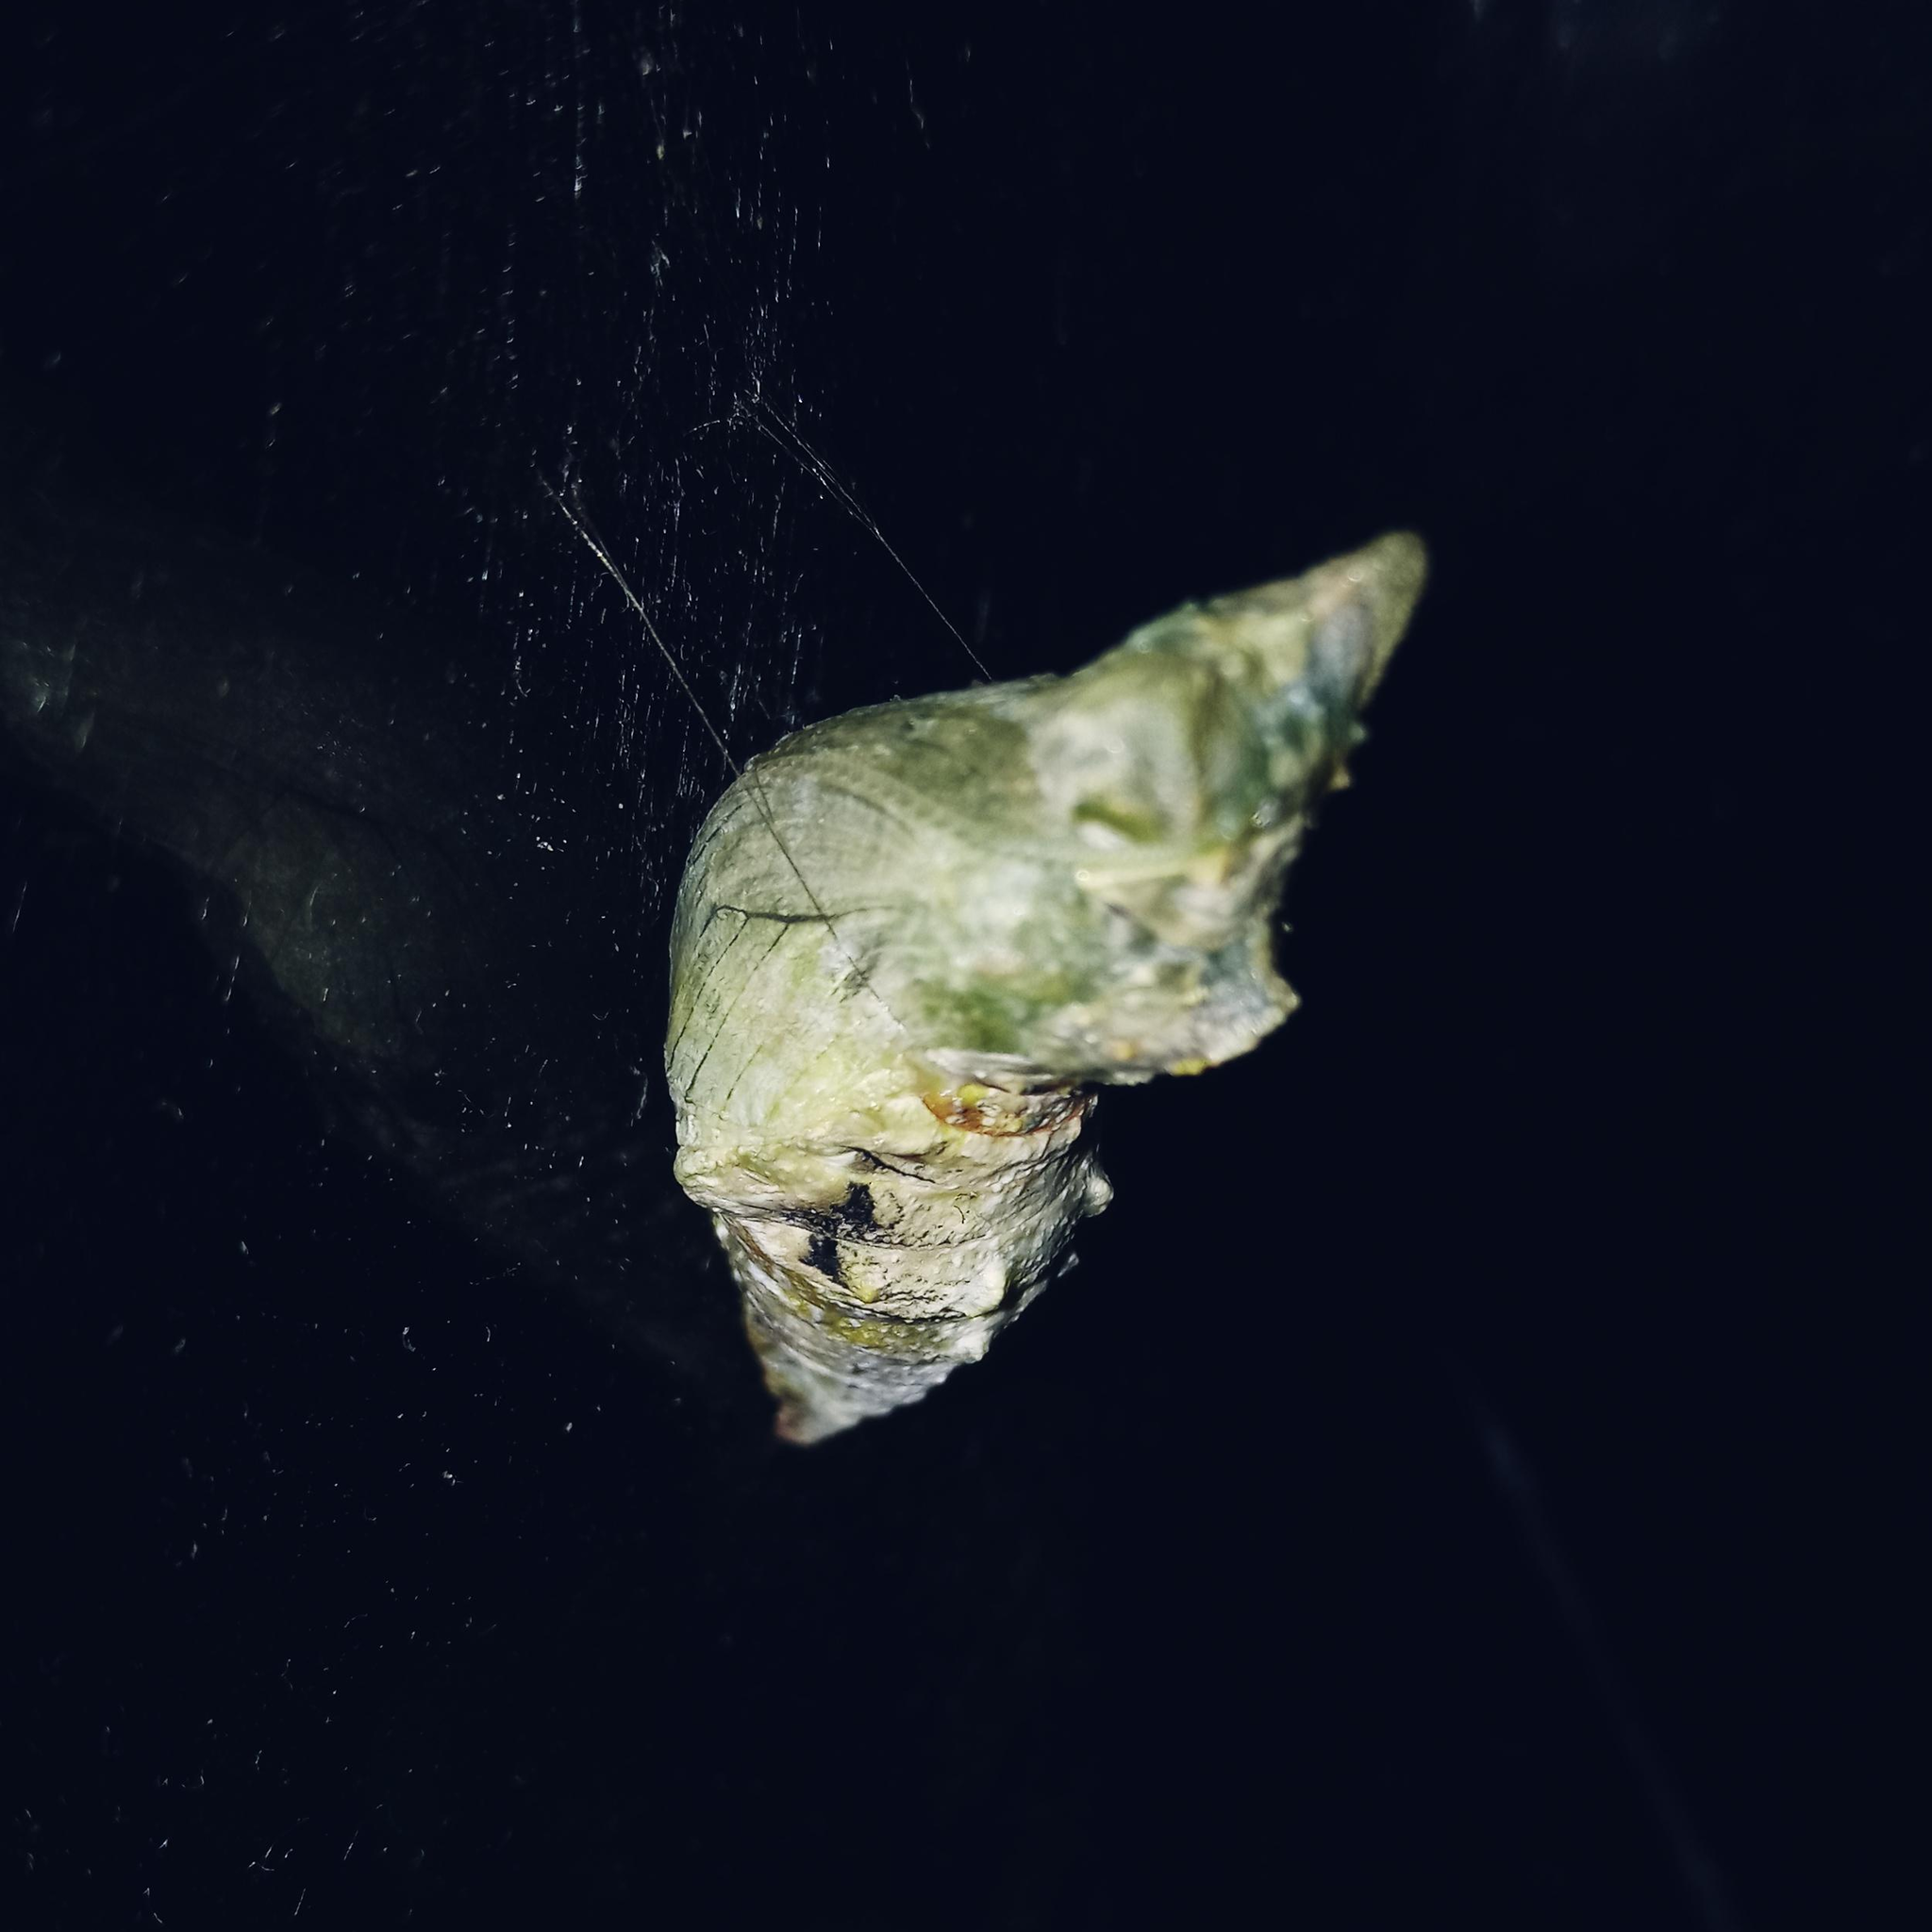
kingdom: Animalia
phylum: Arthropoda
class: Insecta
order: Lepidoptera
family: Papilionidae
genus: Papilio
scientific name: Papilio aegeus
